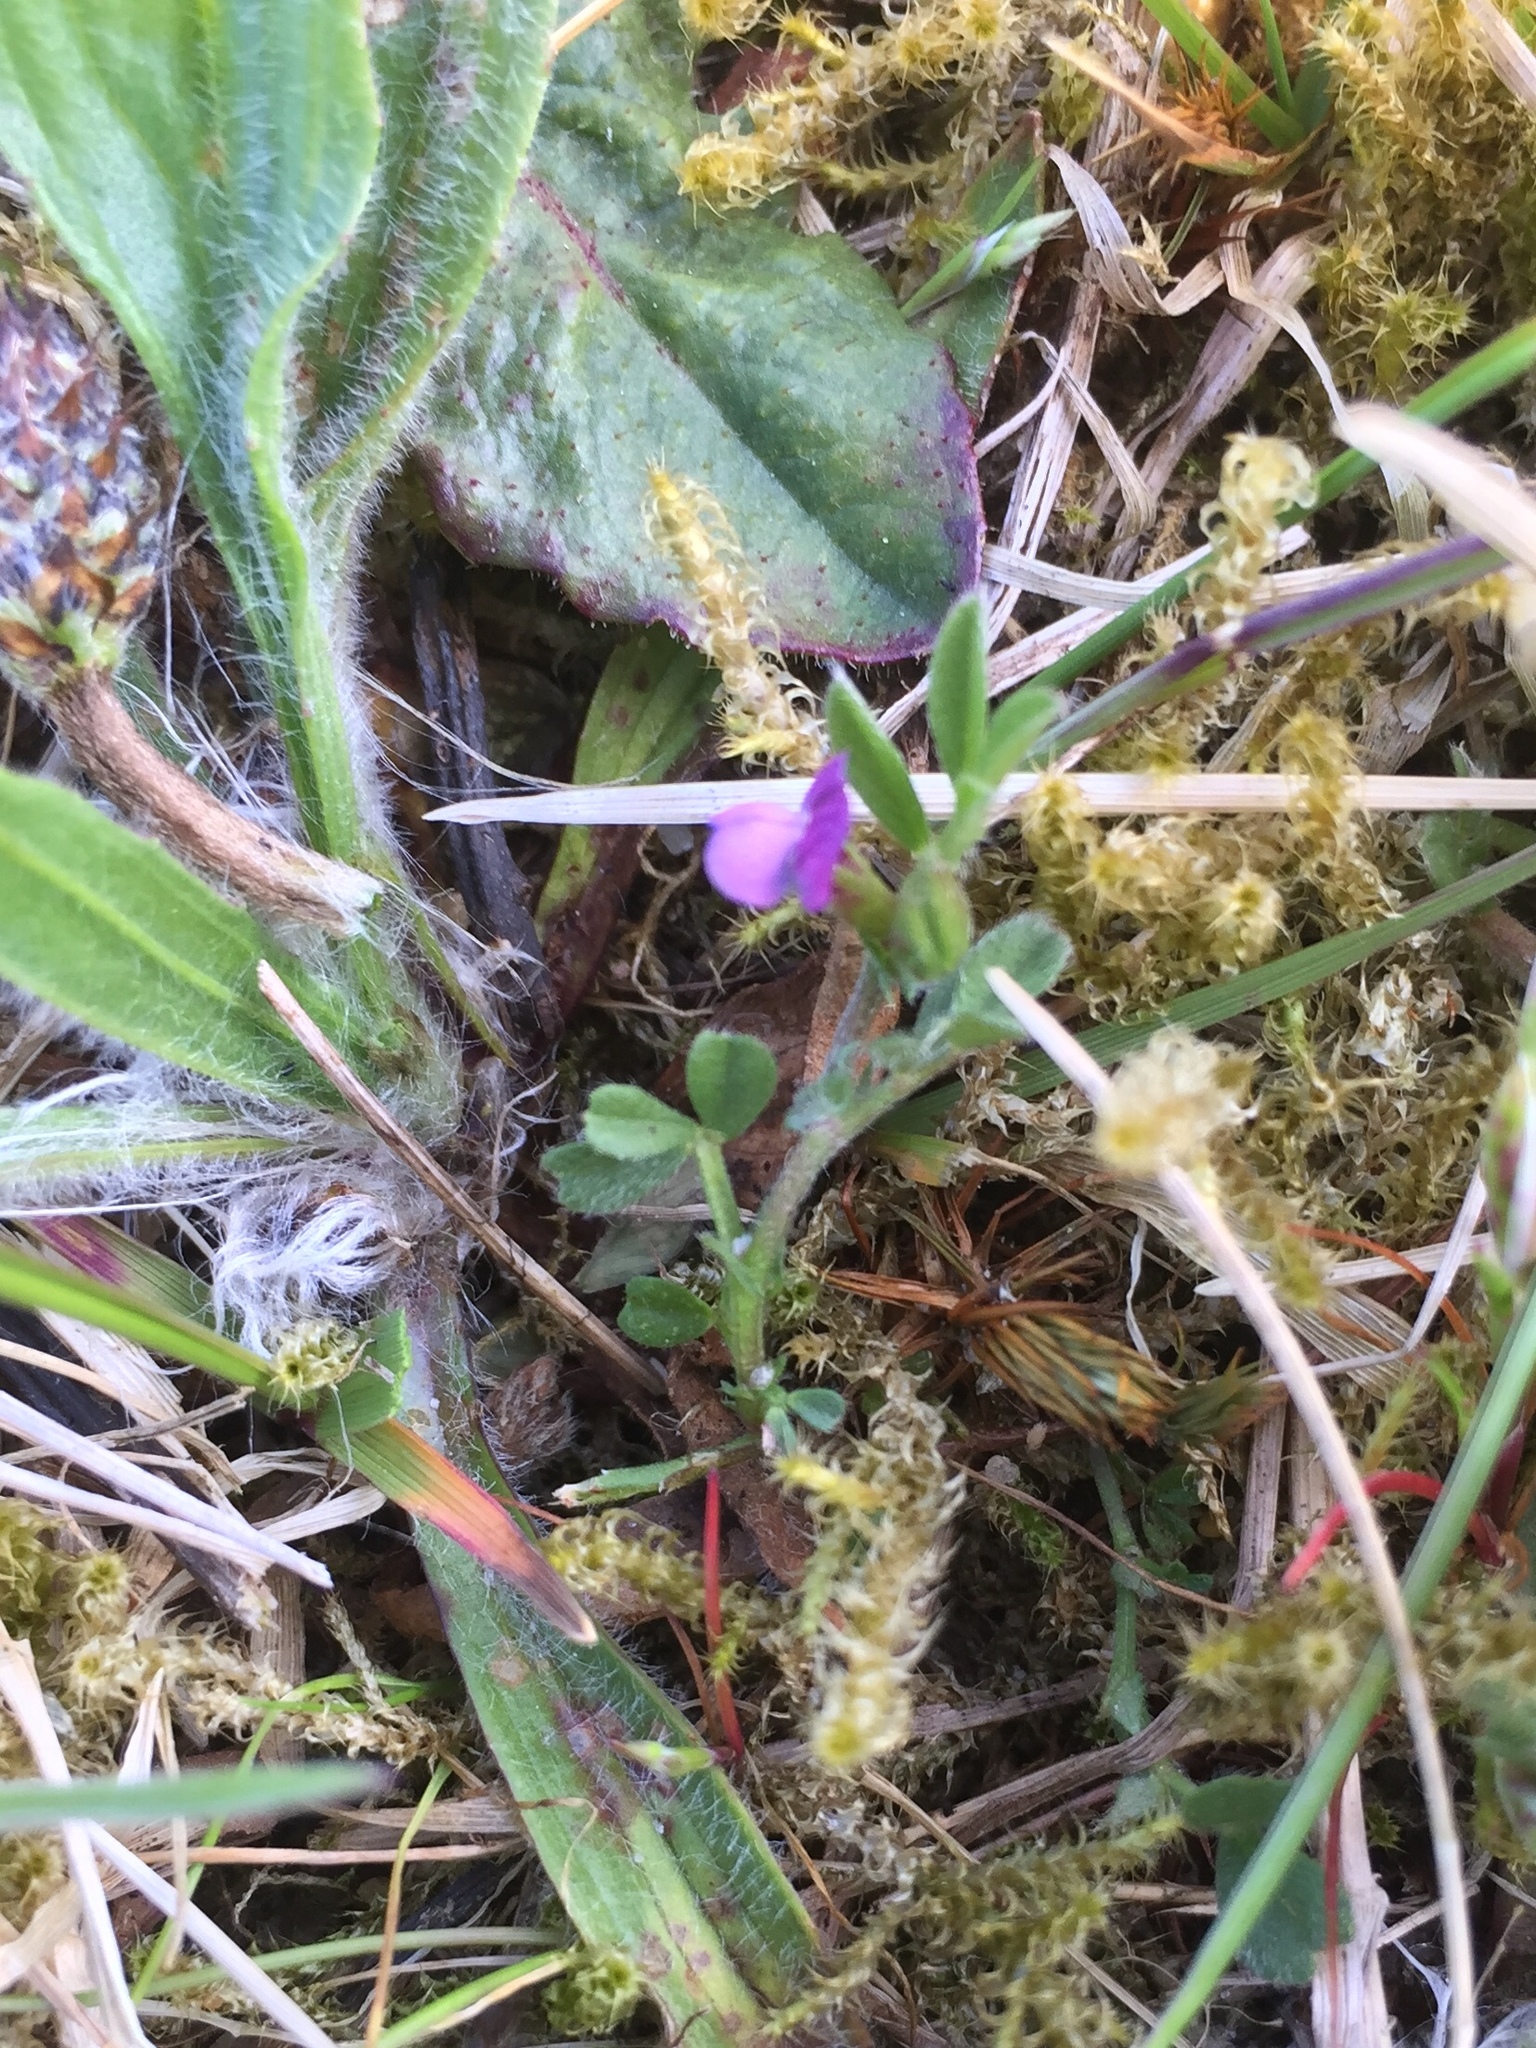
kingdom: Plantae
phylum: Tracheophyta
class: Magnoliopsida
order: Fabales
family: Fabaceae
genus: Vicia
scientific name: Vicia lathyroides
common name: Spring vetch
